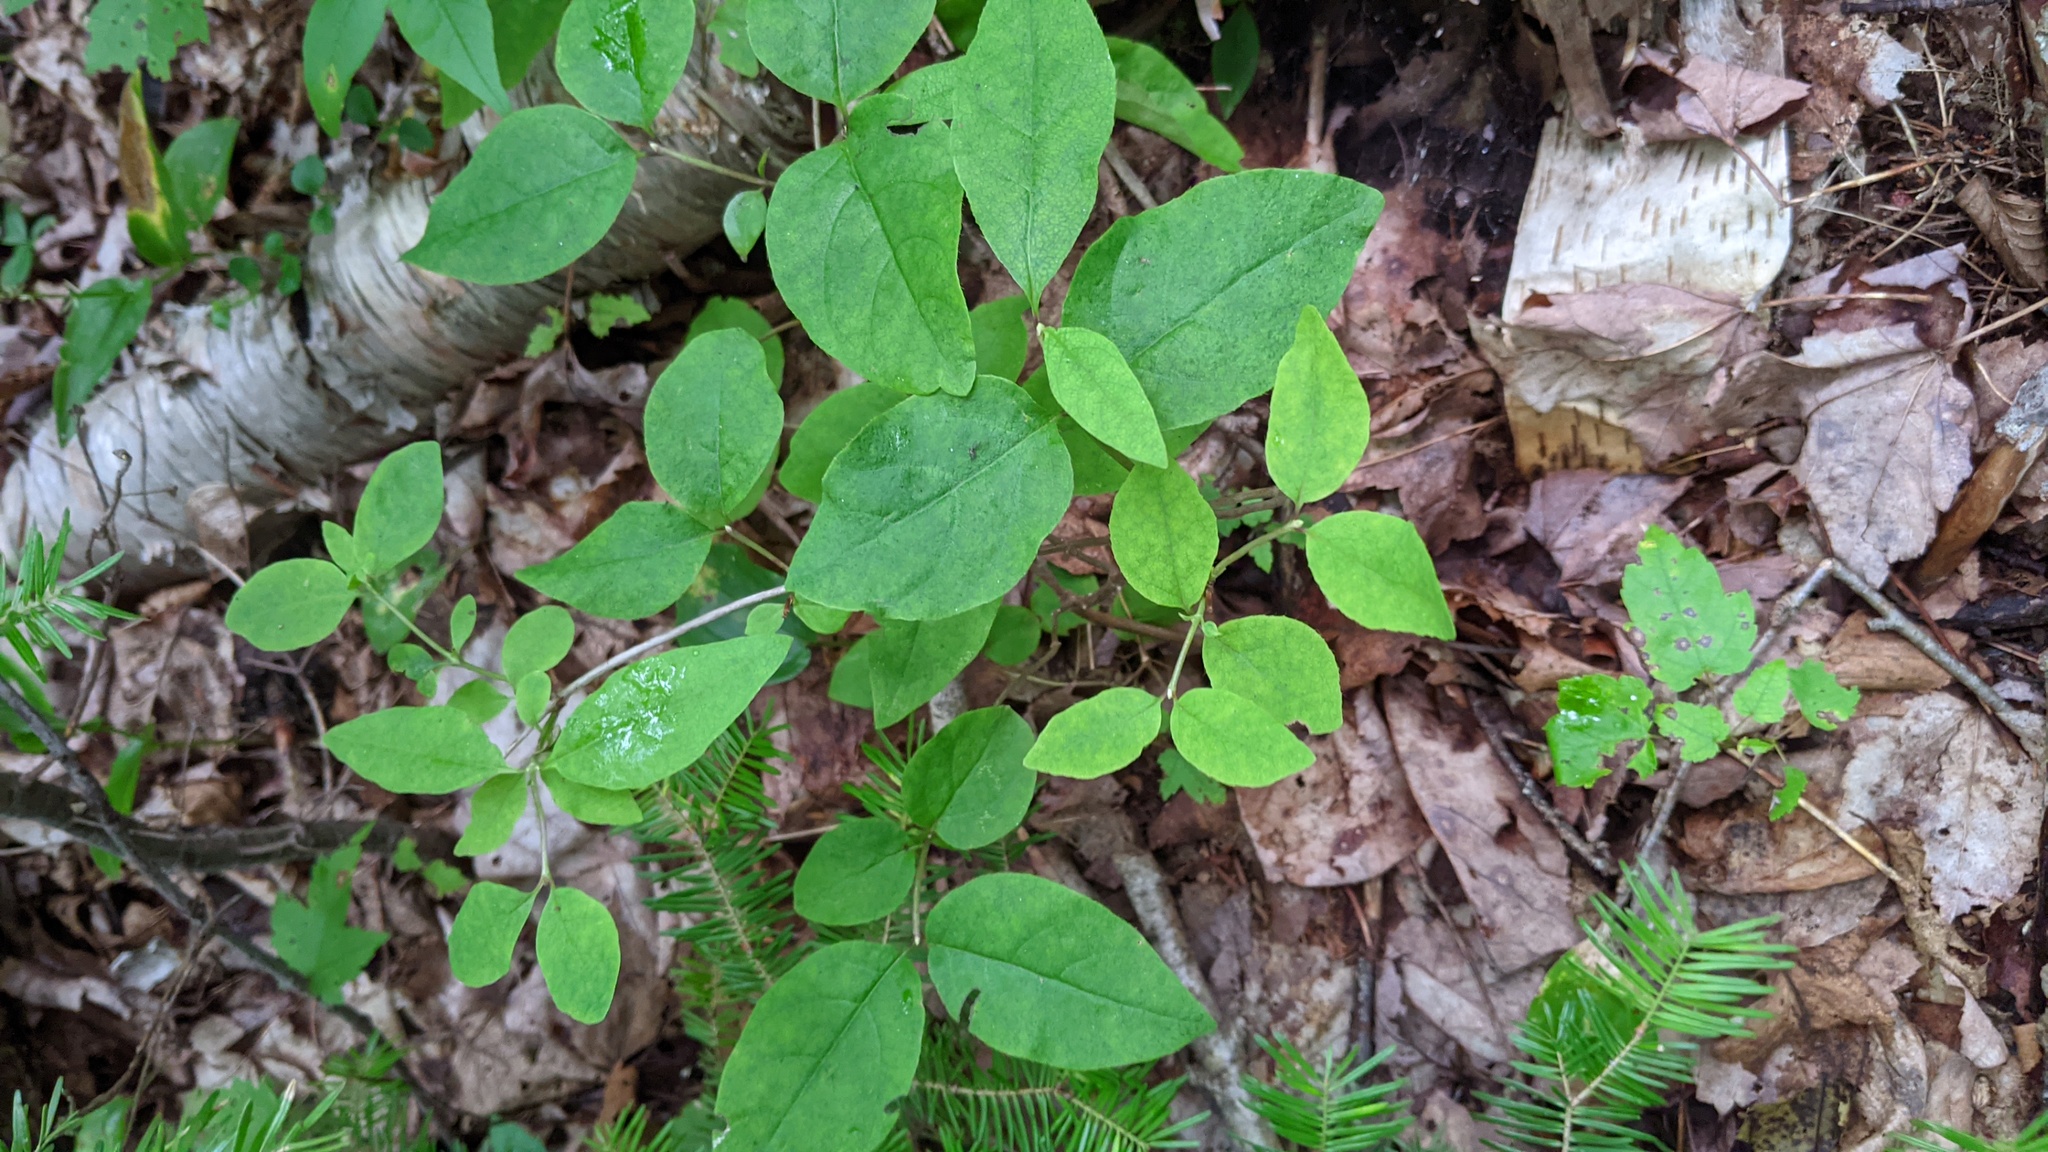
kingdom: Plantae
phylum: Tracheophyta
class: Magnoliopsida
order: Dipsacales
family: Caprifoliaceae
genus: Lonicera
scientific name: Lonicera canadensis
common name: American fly-honeysuckle
